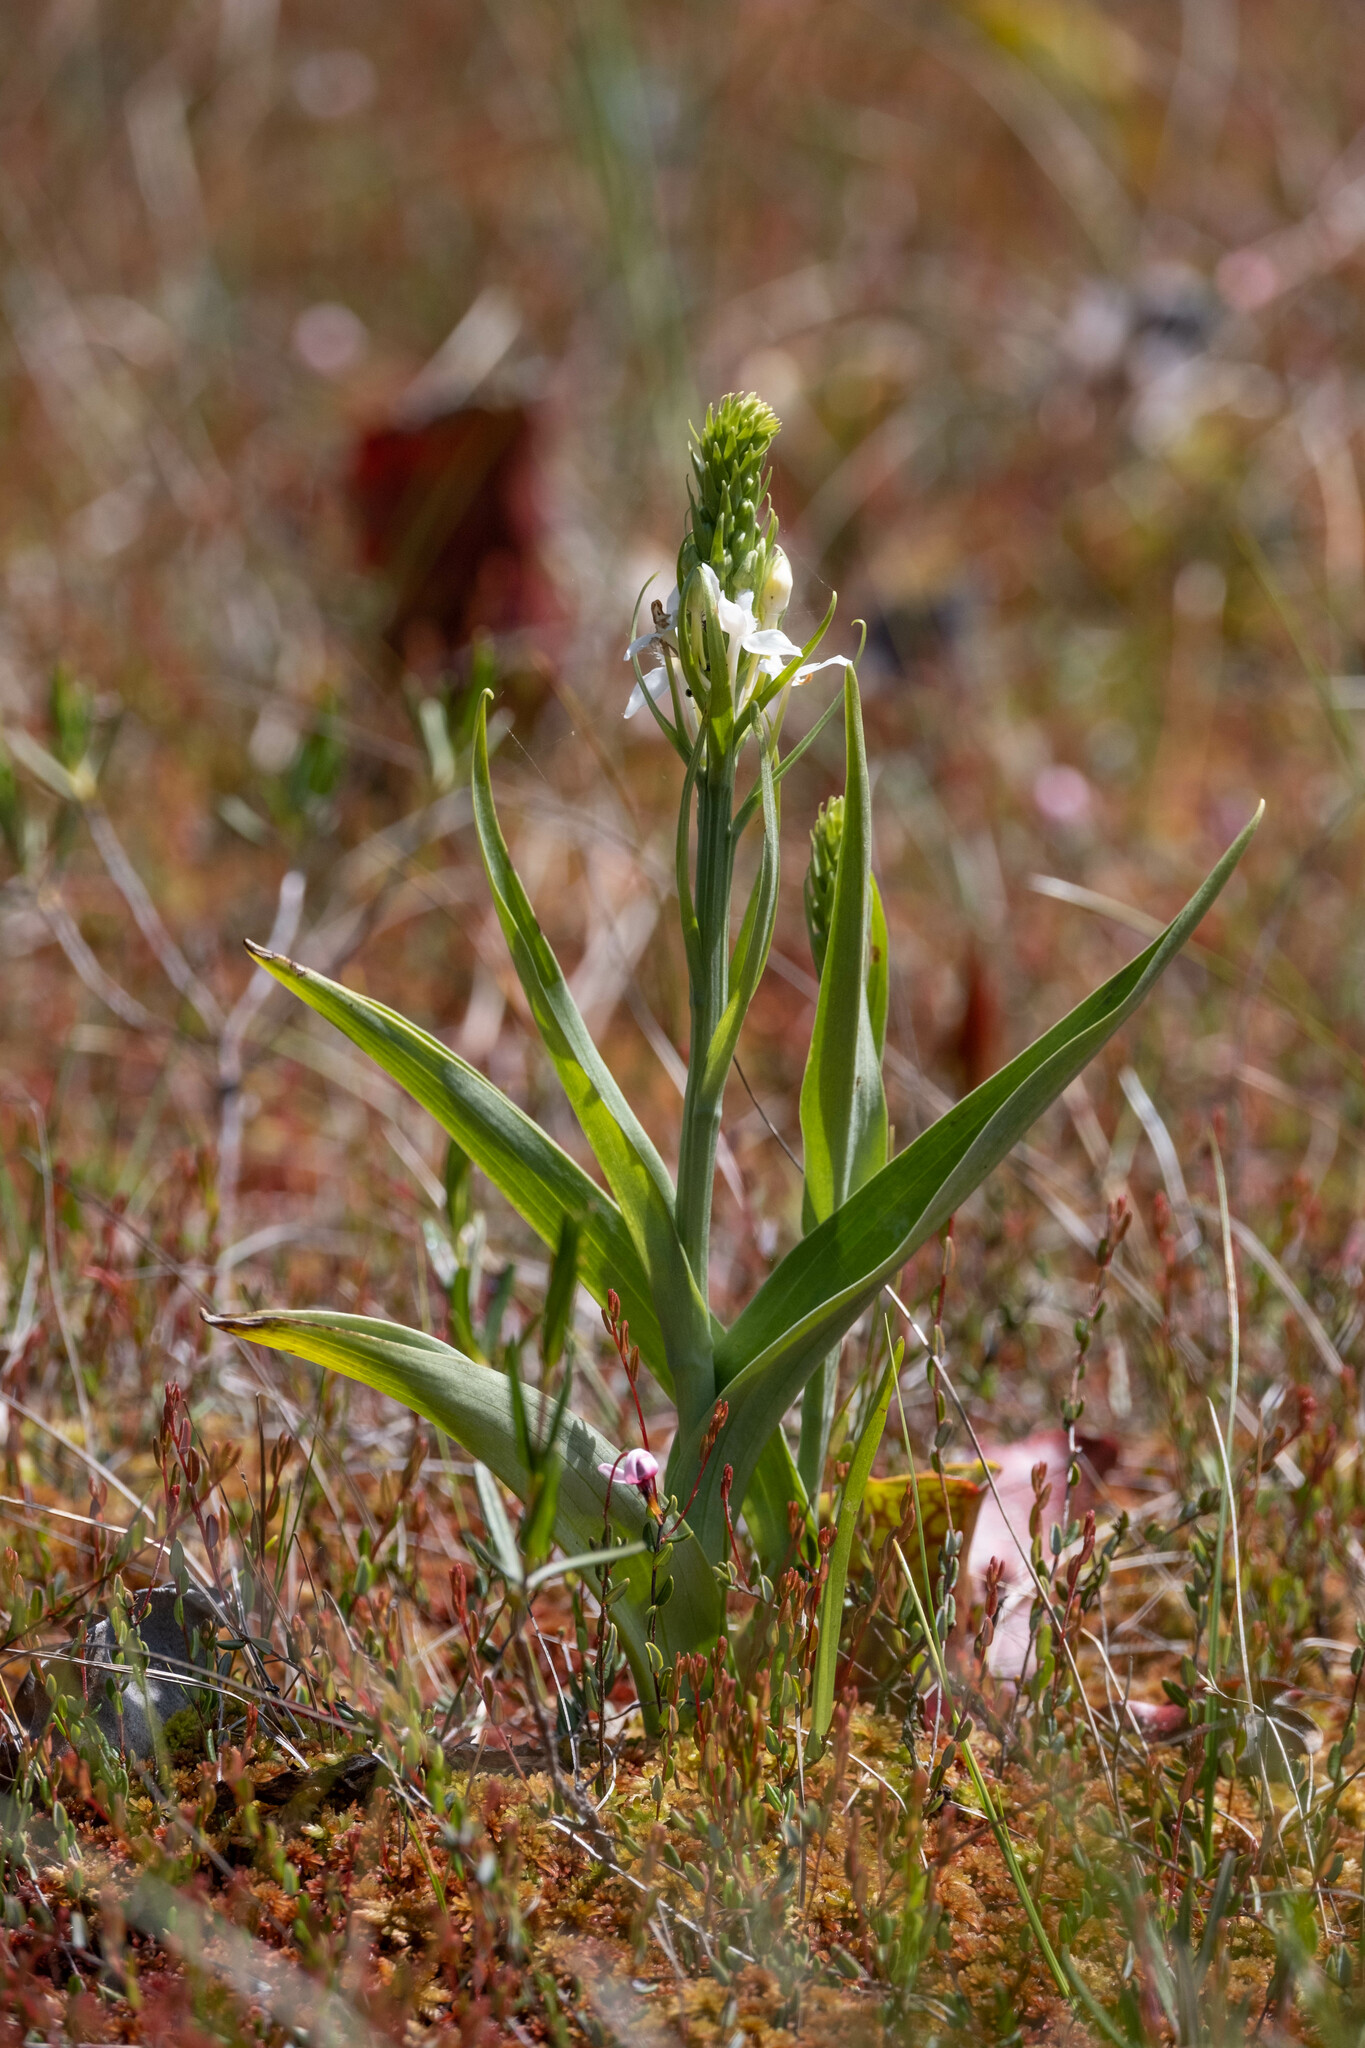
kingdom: Plantae
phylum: Tracheophyta
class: Liliopsida
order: Asparagales
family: Orchidaceae
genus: Platanthera
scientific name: Platanthera blephariglottis
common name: White fringed orchid
